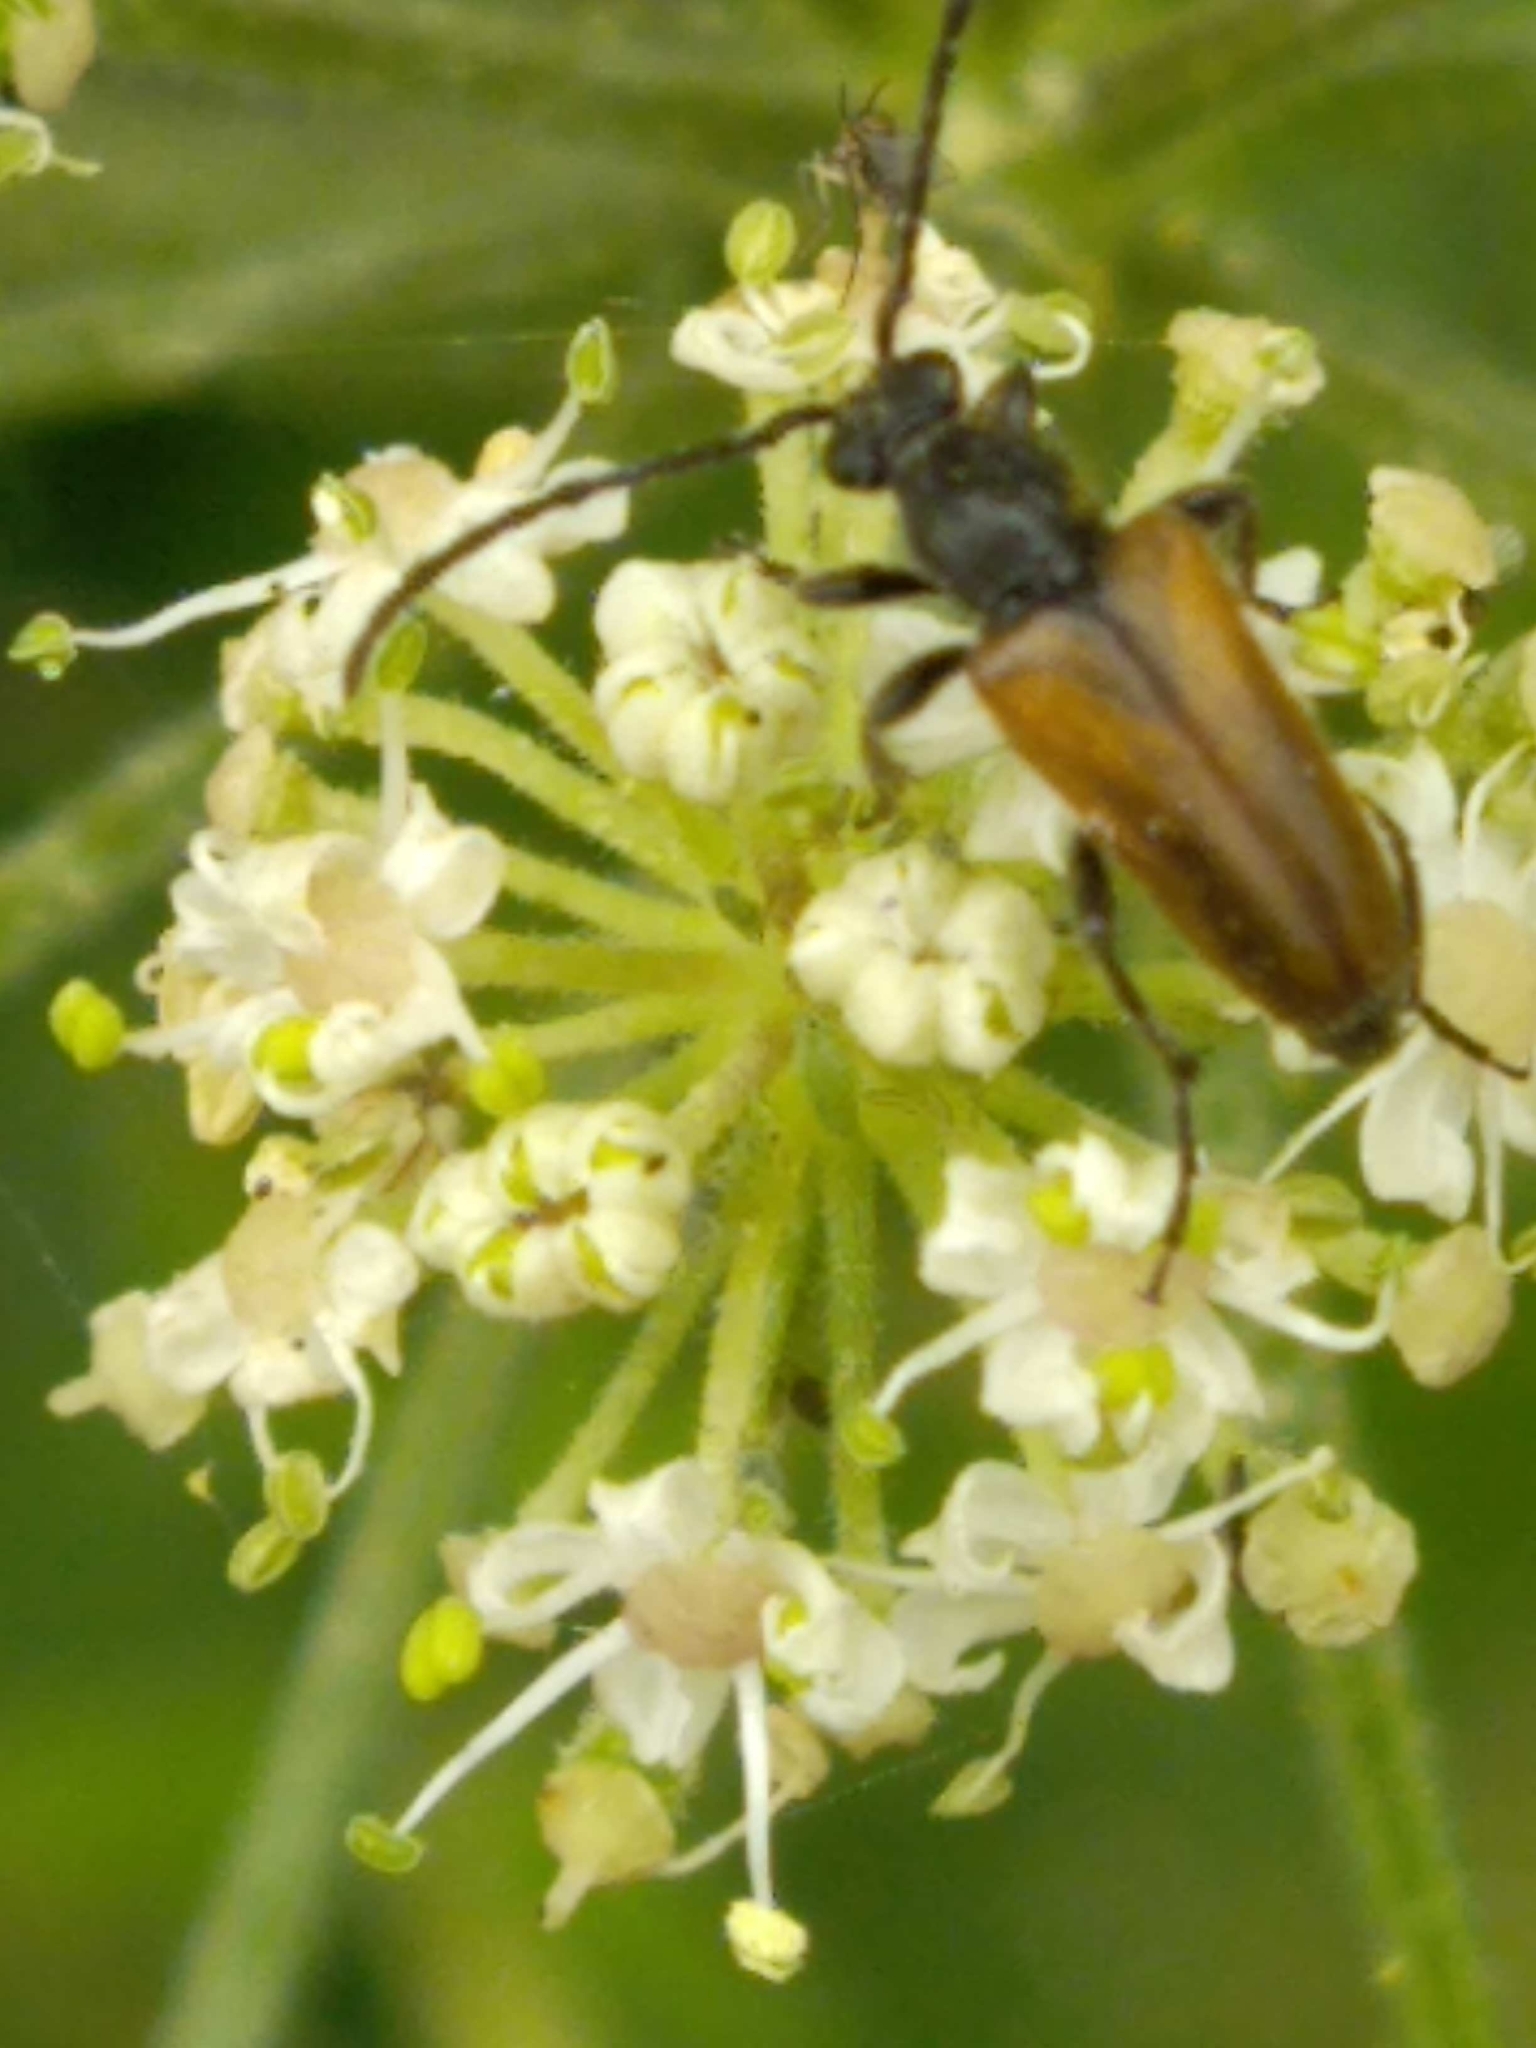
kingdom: Animalia
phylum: Arthropoda
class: Insecta
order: Coleoptera
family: Cerambycidae
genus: Pseudovadonia
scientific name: Pseudovadonia livida
